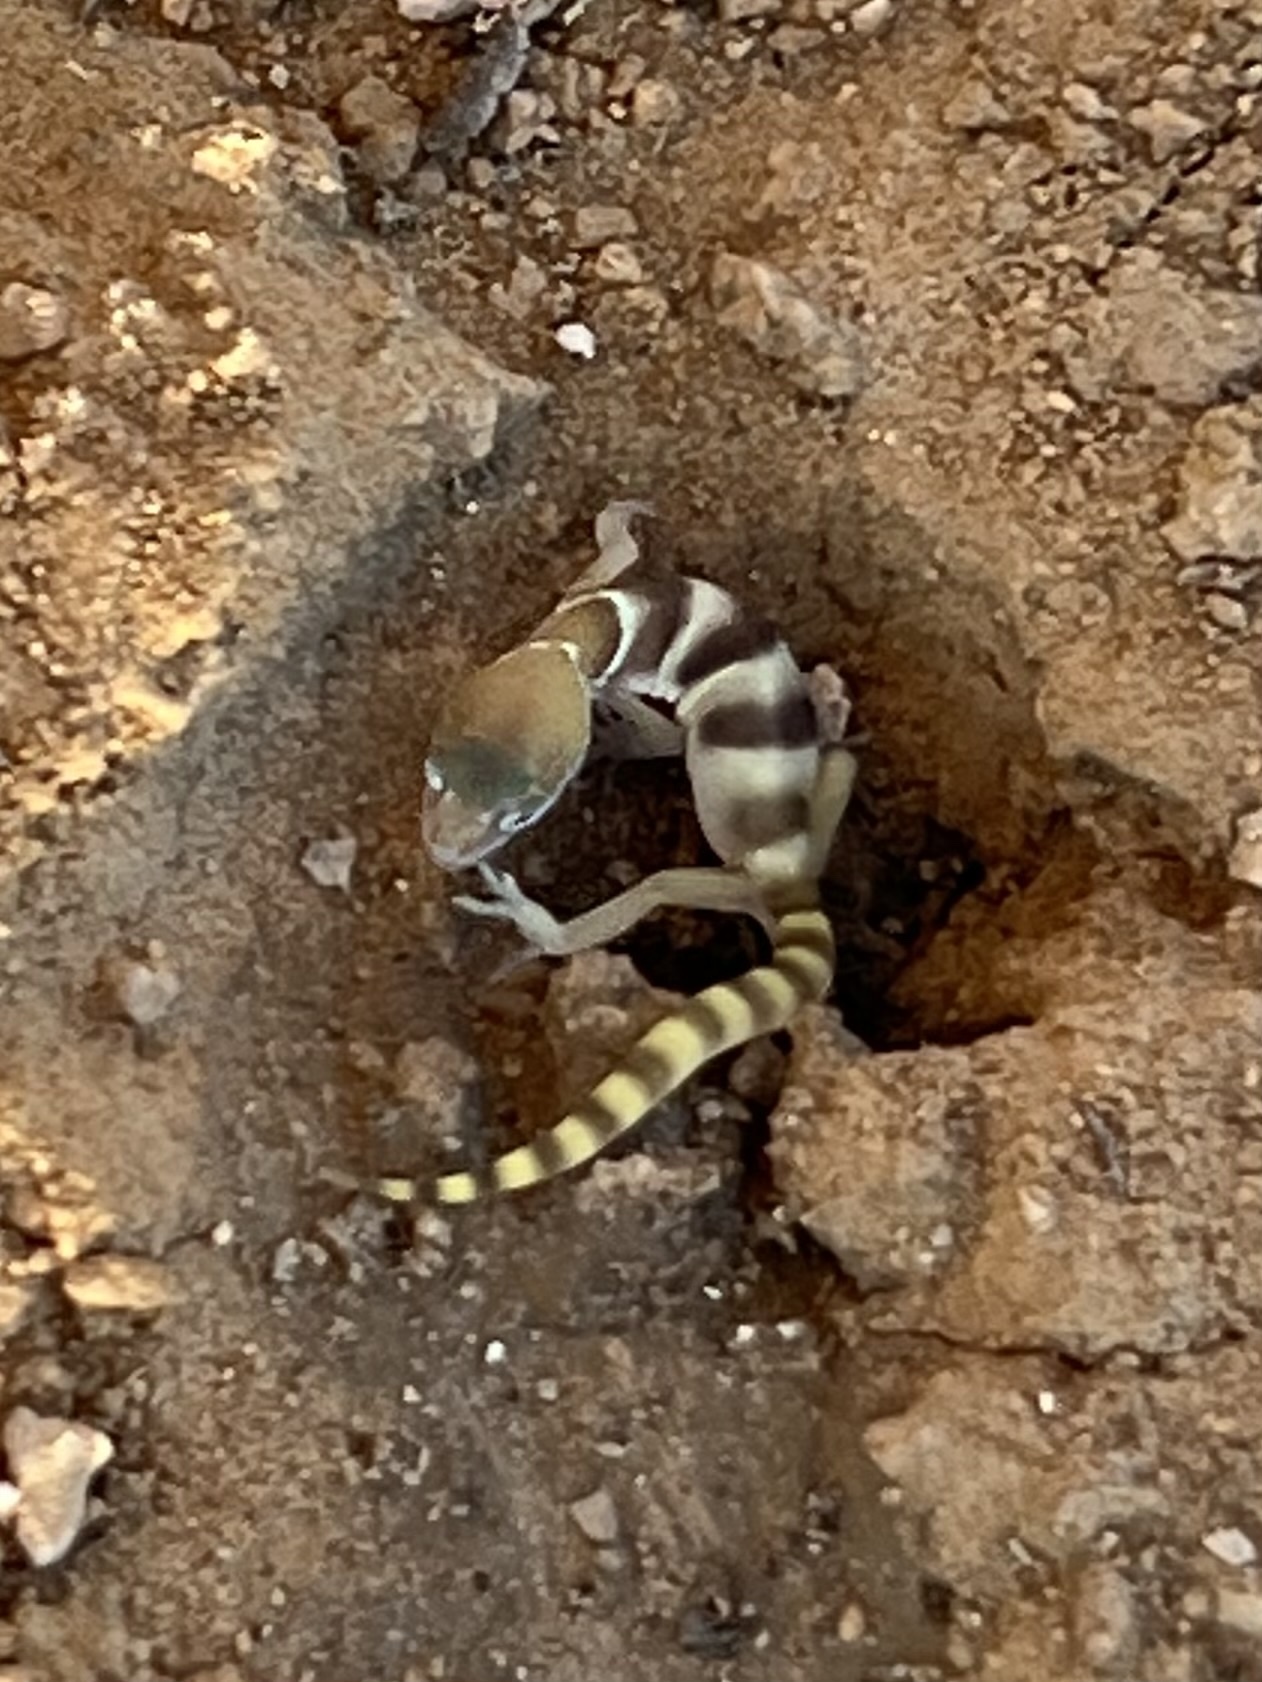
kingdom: Animalia
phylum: Chordata
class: Squamata
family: Eublepharidae
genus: Coleonyx
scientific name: Coleonyx variegatus
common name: Western banded gecko
